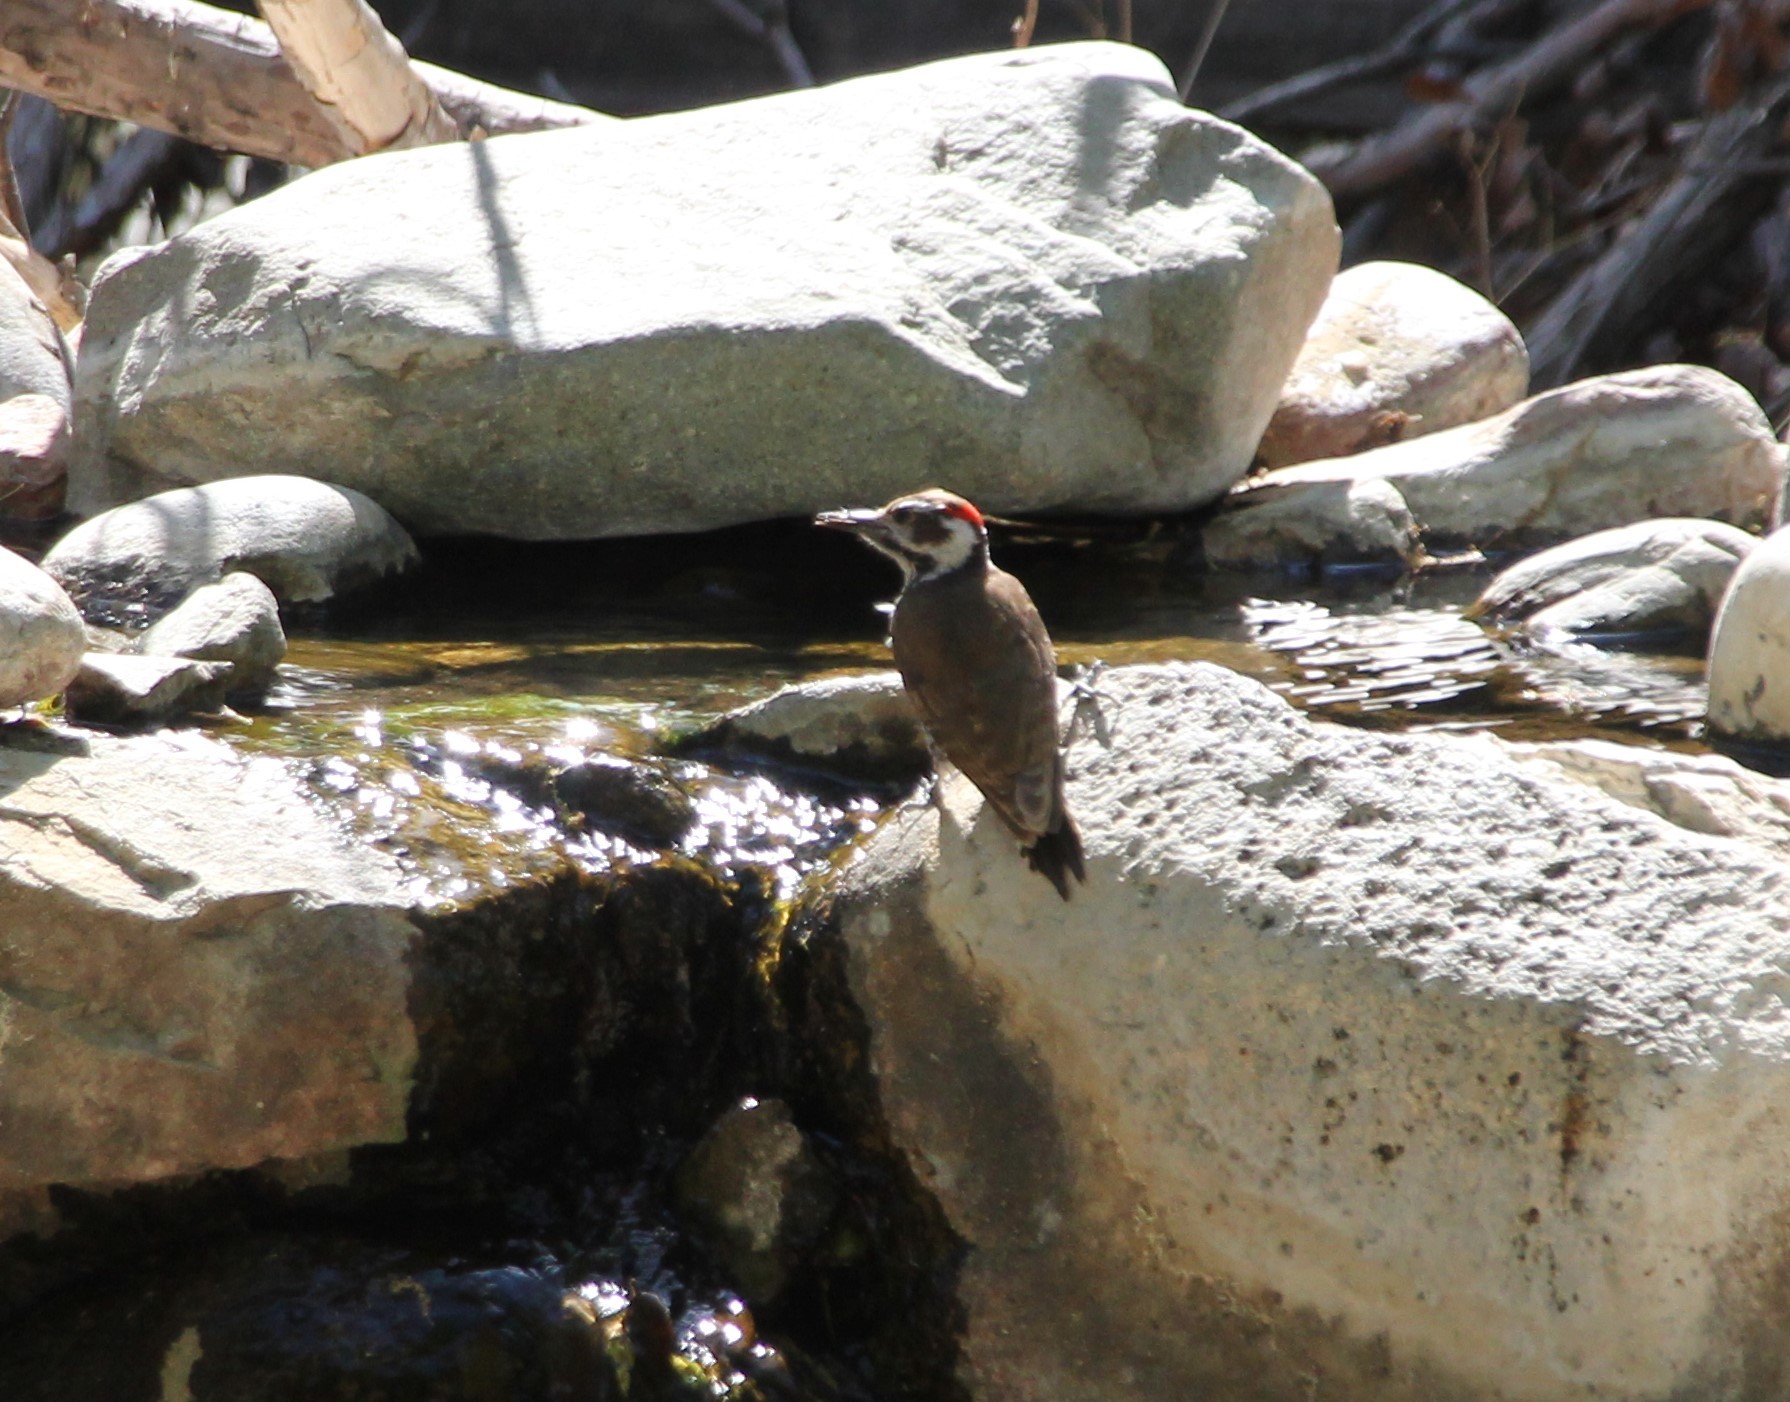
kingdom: Animalia
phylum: Chordata
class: Aves
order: Piciformes
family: Picidae
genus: Leuconotopicus
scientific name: Leuconotopicus arizonae
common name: Arizona woodpecker
